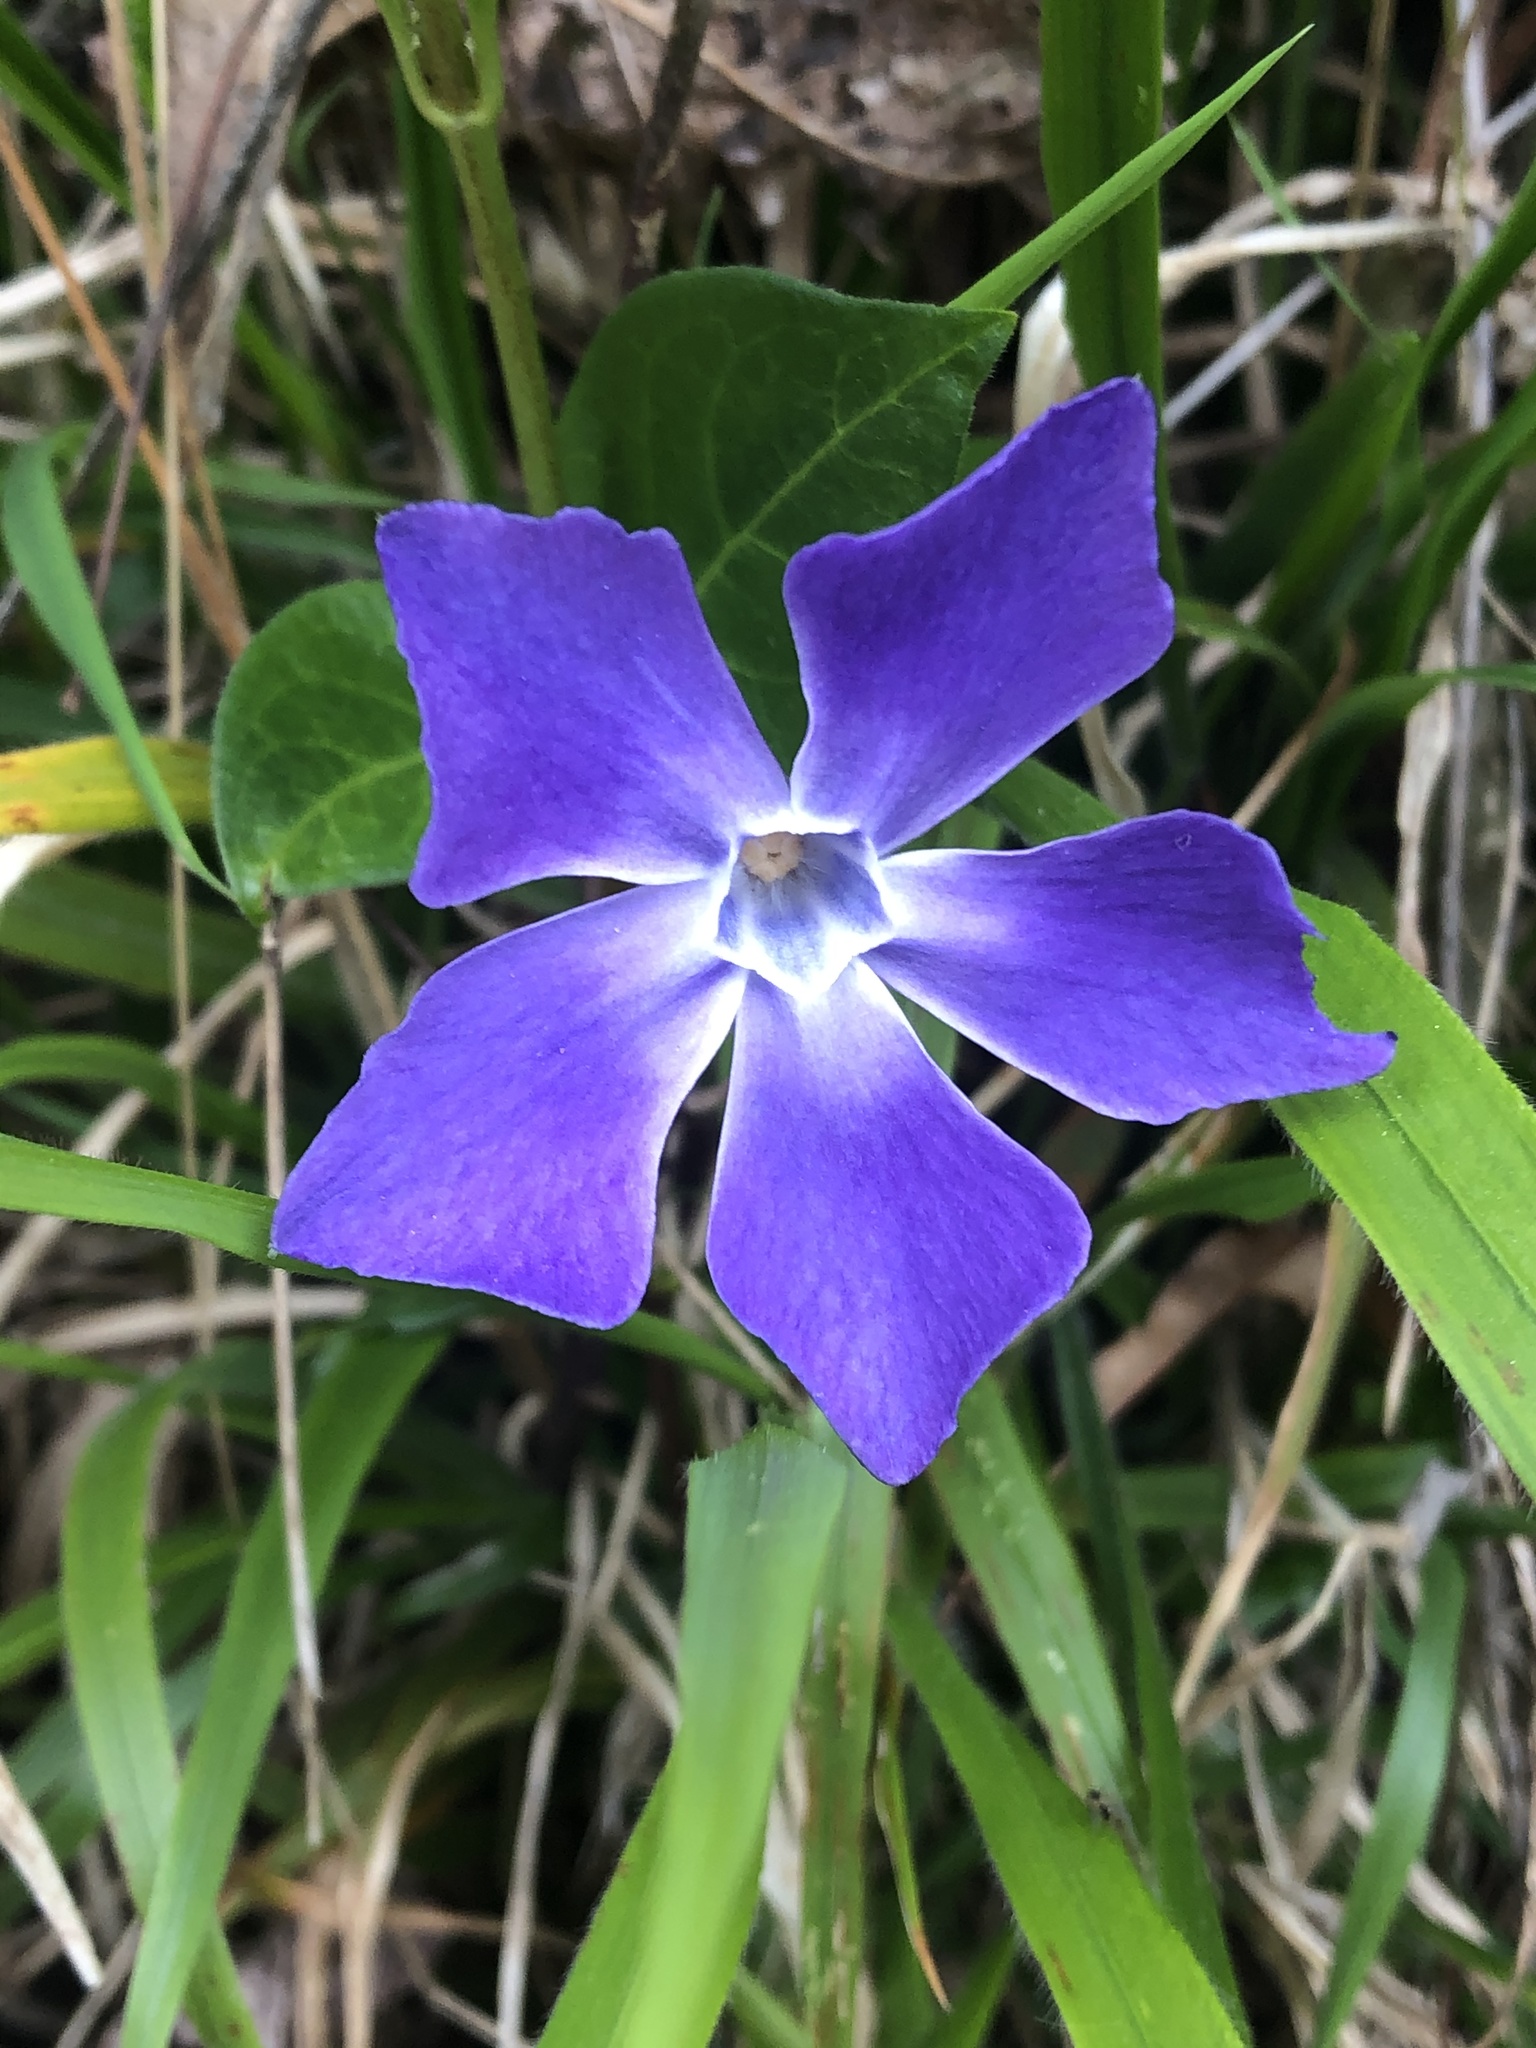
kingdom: Plantae
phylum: Tracheophyta
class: Magnoliopsida
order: Gentianales
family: Apocynaceae
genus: Vinca
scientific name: Vinca major
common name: Greater periwinkle
